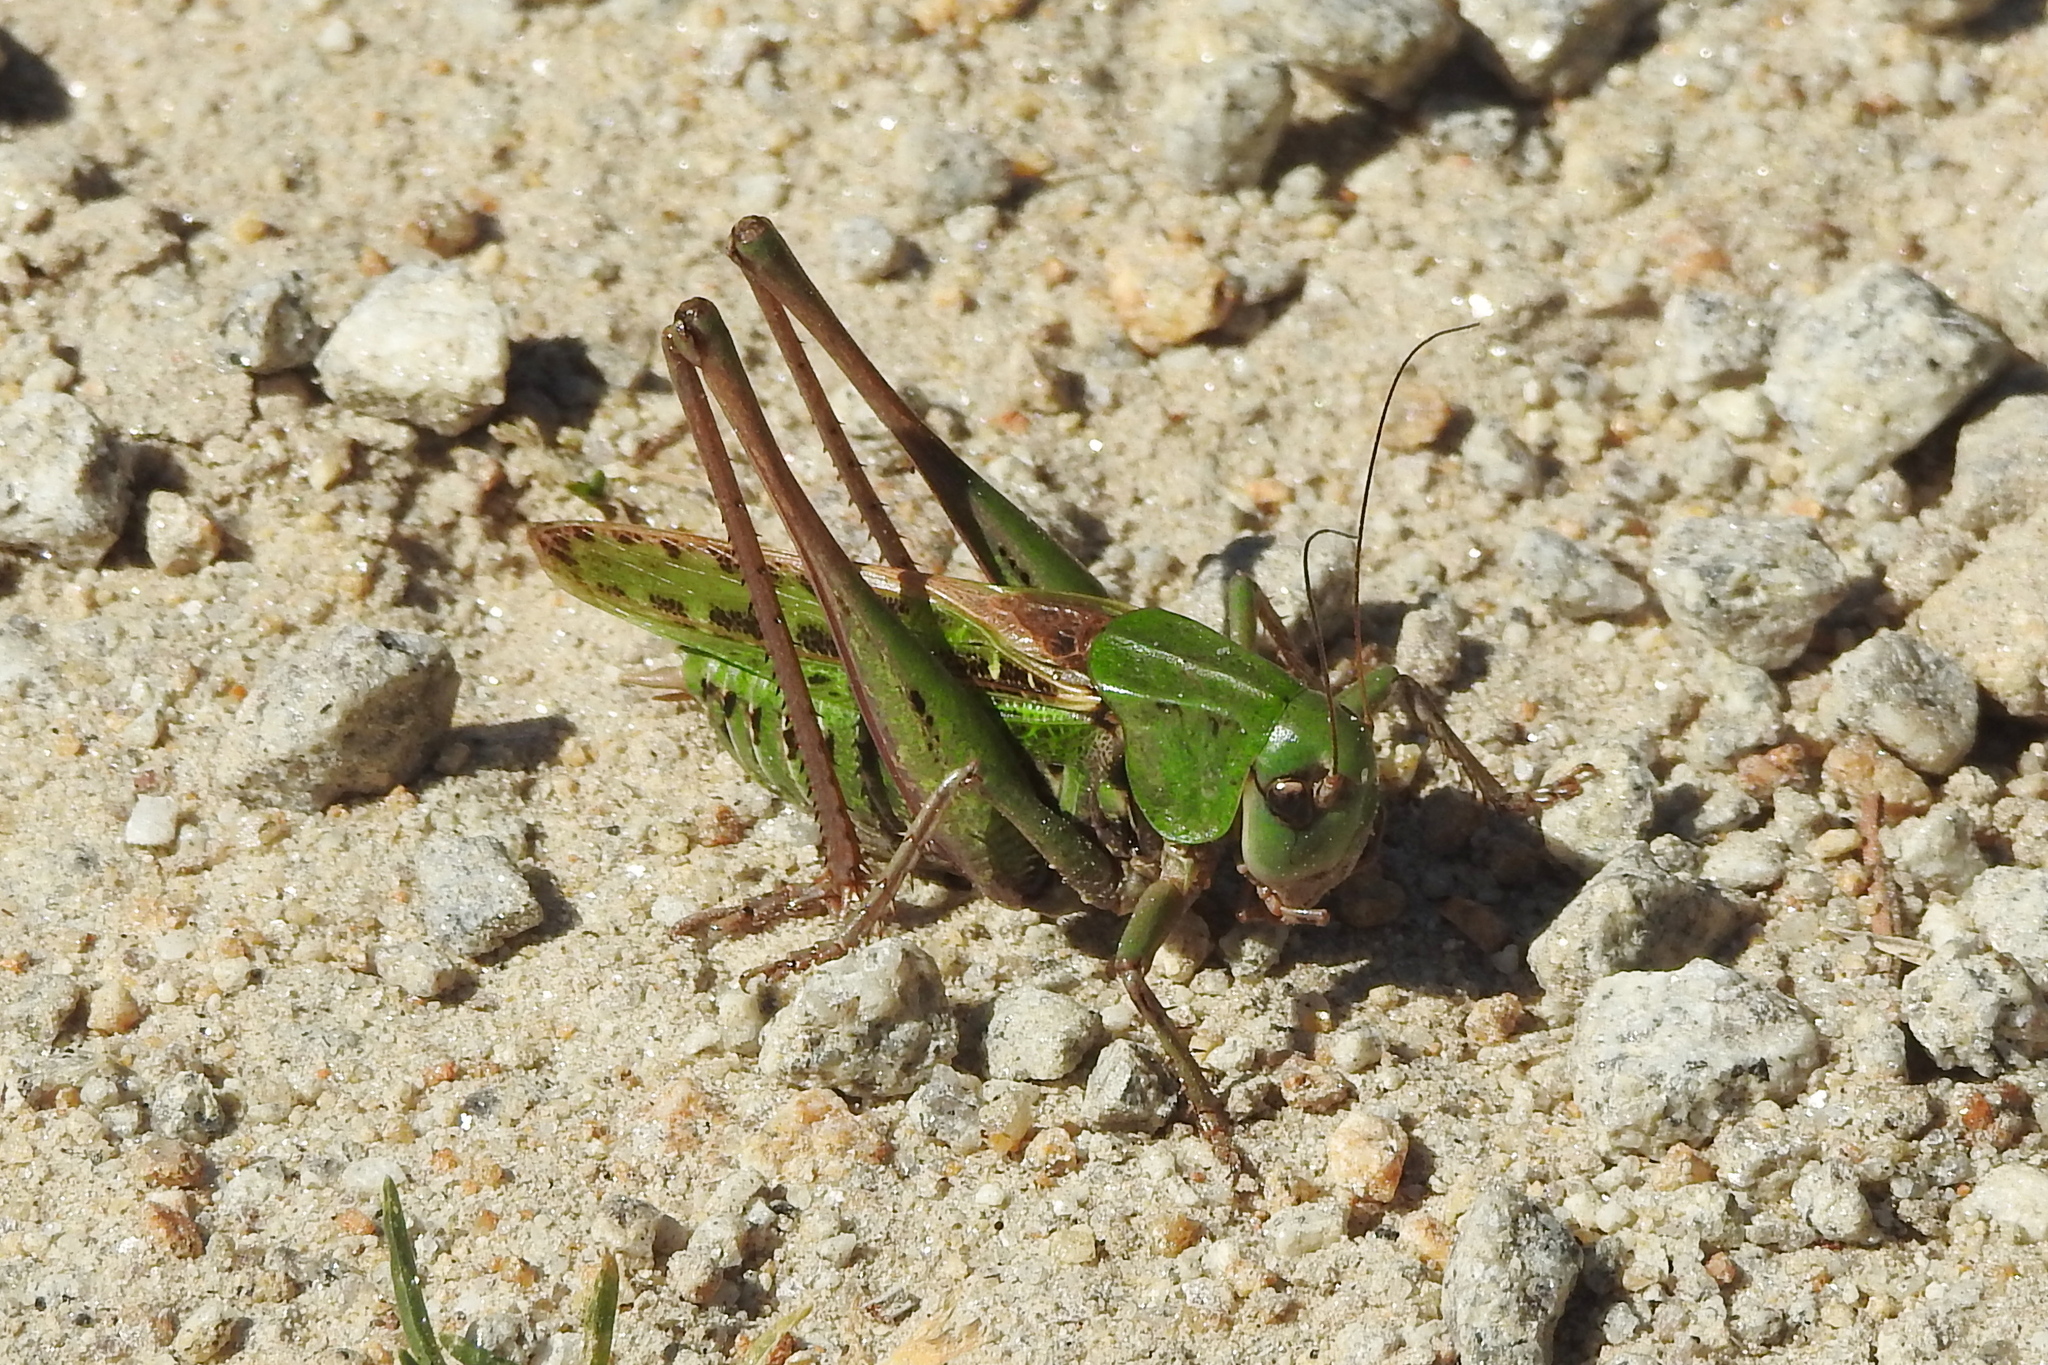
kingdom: Animalia
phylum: Arthropoda
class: Insecta
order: Orthoptera
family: Tettigoniidae
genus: Decticus
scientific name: Decticus verrucivorus
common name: Wart-biter
